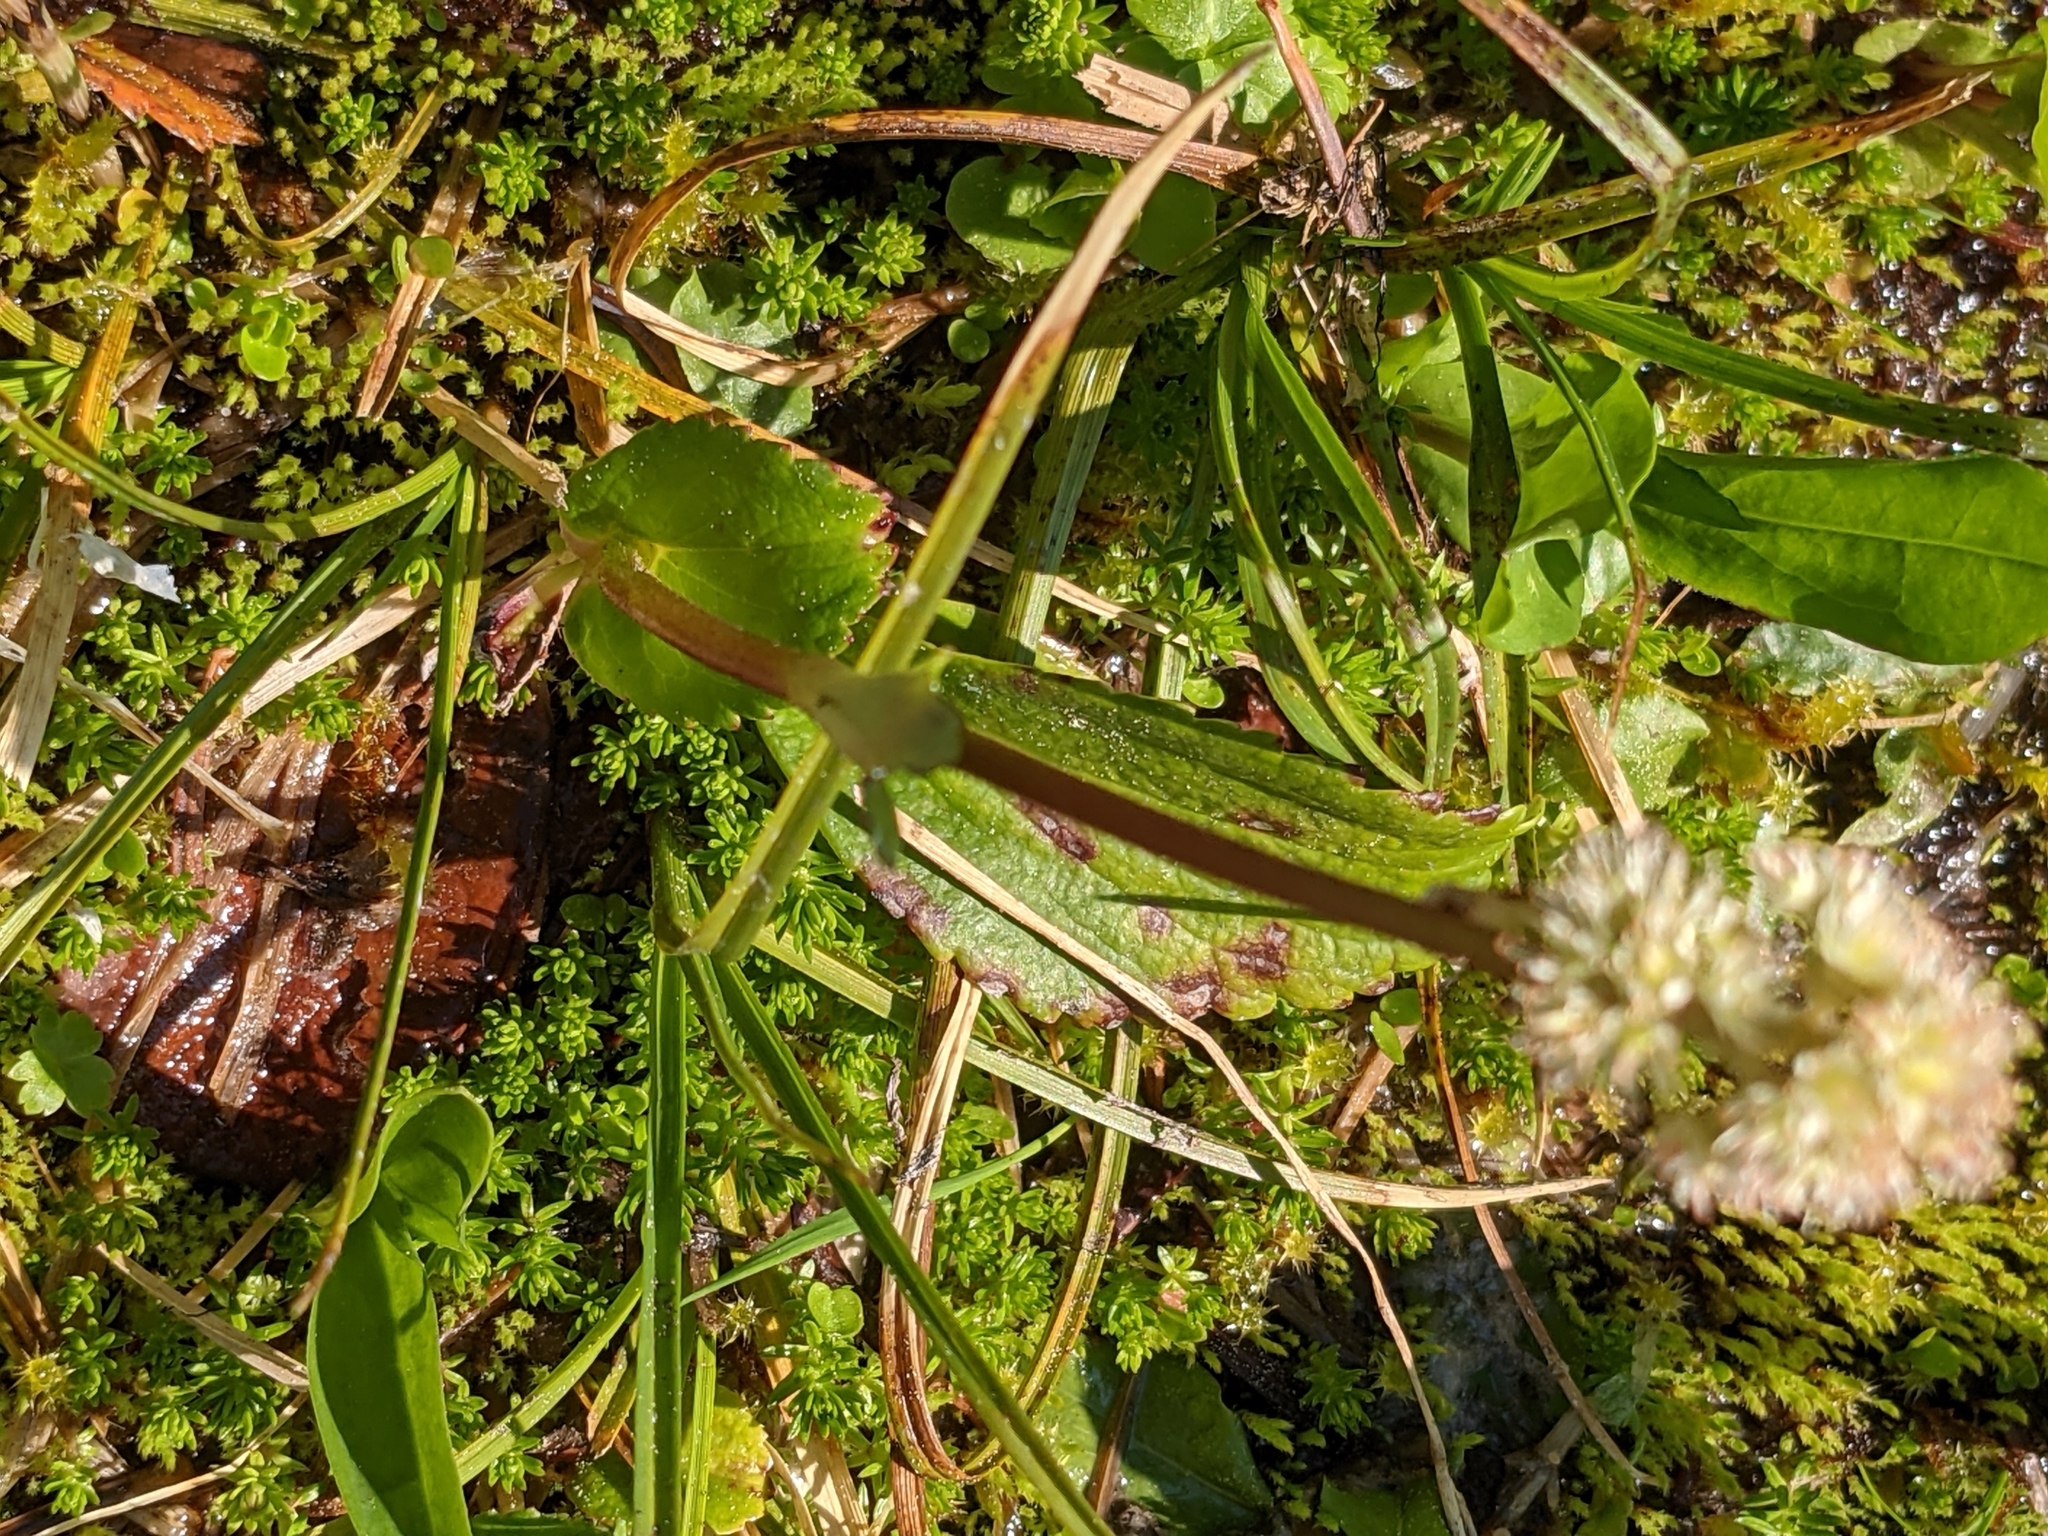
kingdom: Plantae
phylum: Tracheophyta
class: Magnoliopsida
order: Saxifragales
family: Saxifragaceae
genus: Leptarrhena
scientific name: Leptarrhena pyrolifolia
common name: Leatherleaf-saxifrage
